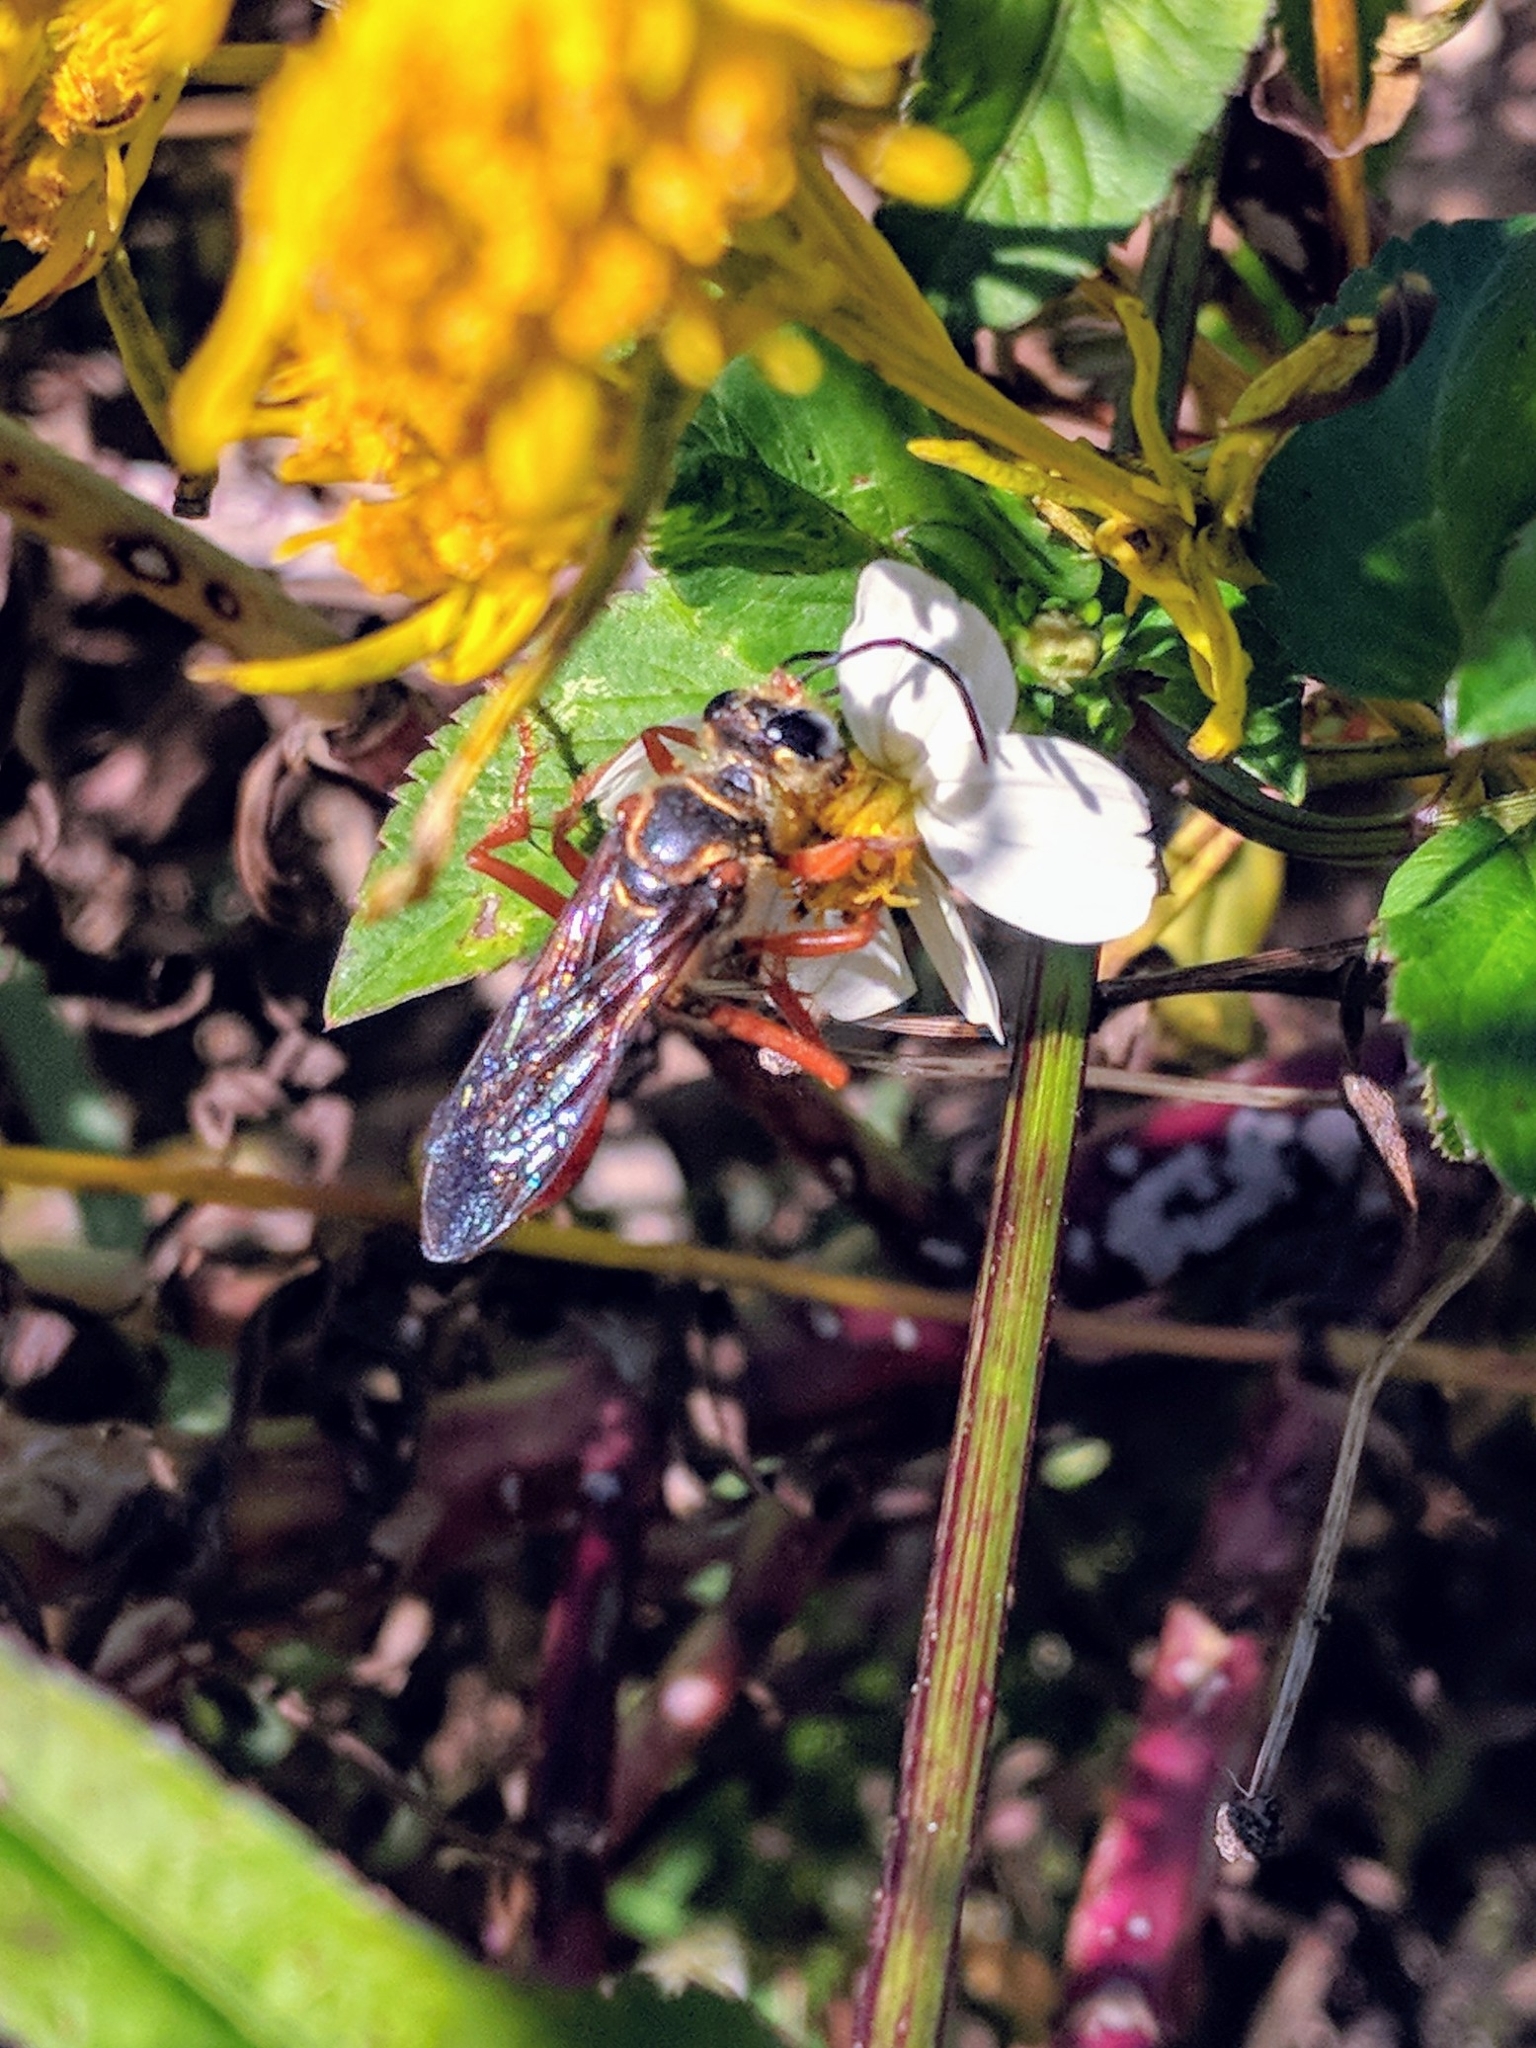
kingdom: Animalia
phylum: Arthropoda
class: Insecta
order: Hymenoptera
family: Sphecidae
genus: Sphex
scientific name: Sphex jamaicensis
